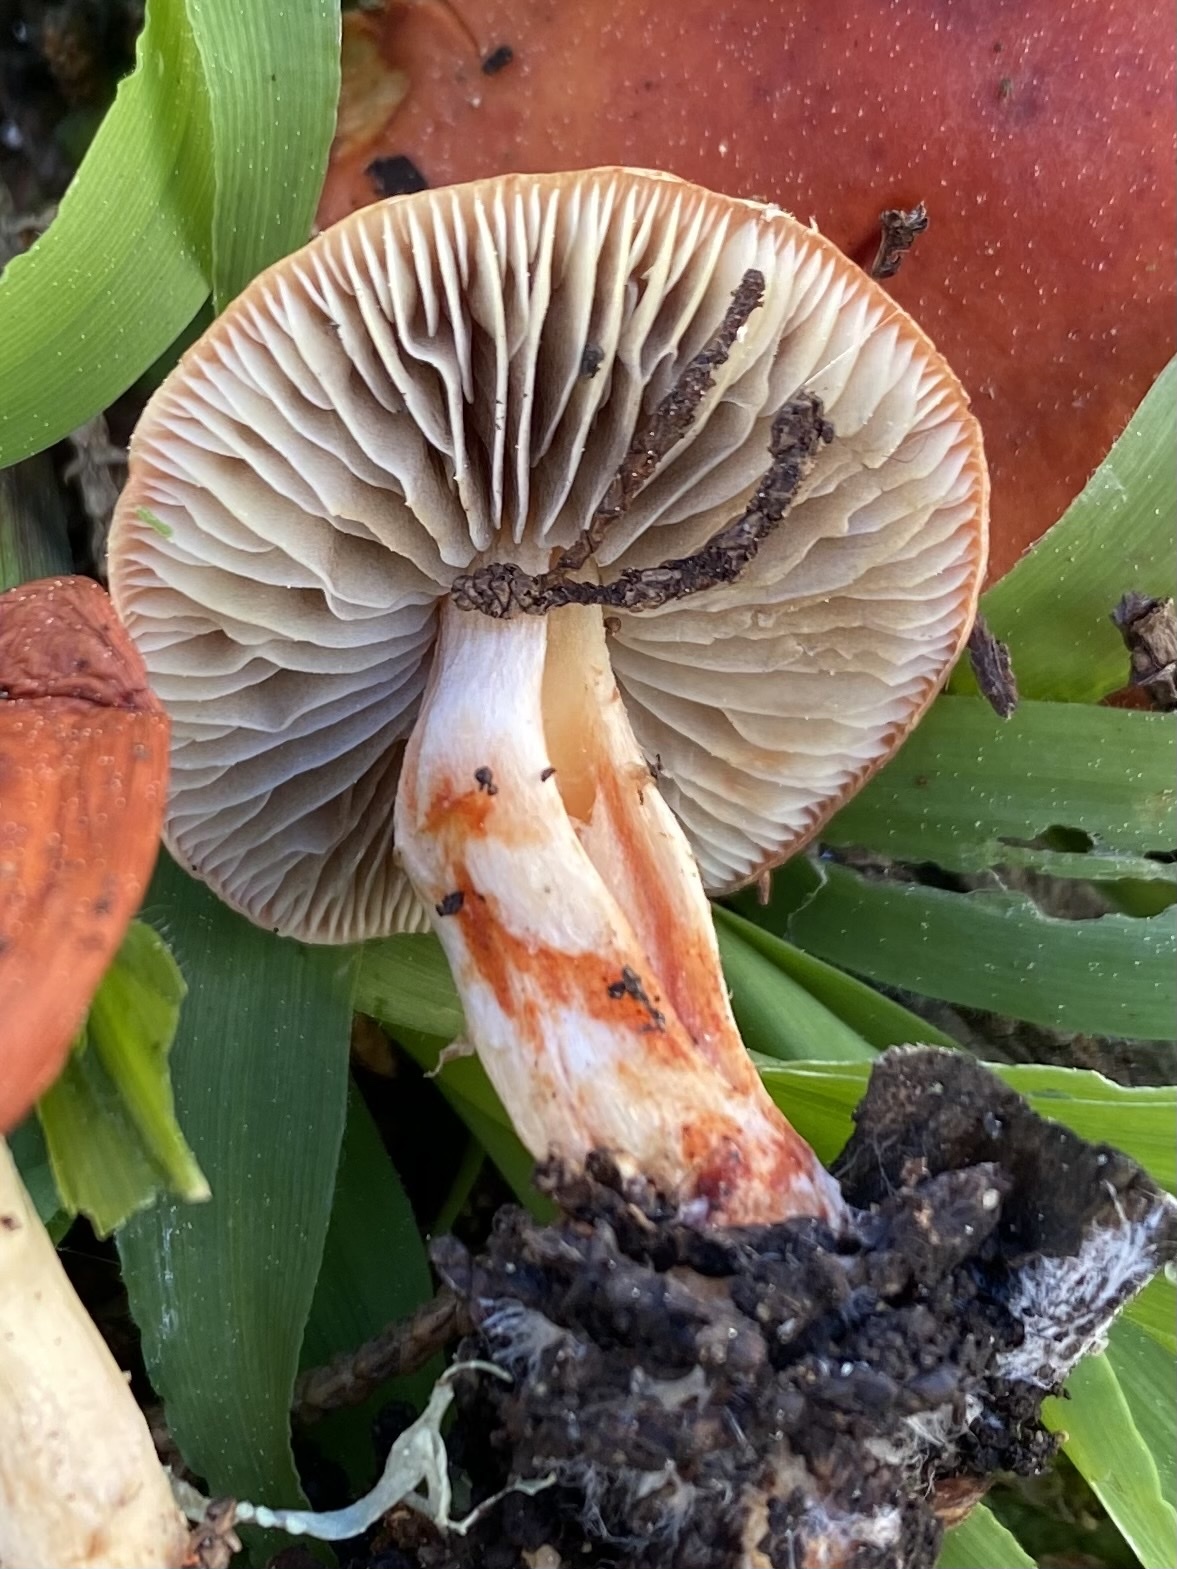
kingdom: Fungi
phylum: Basidiomycota
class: Agaricomycetes
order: Agaricales
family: Strophariaceae
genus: Leratiomyces
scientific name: Leratiomyces ceres
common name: Redlead roundhead
